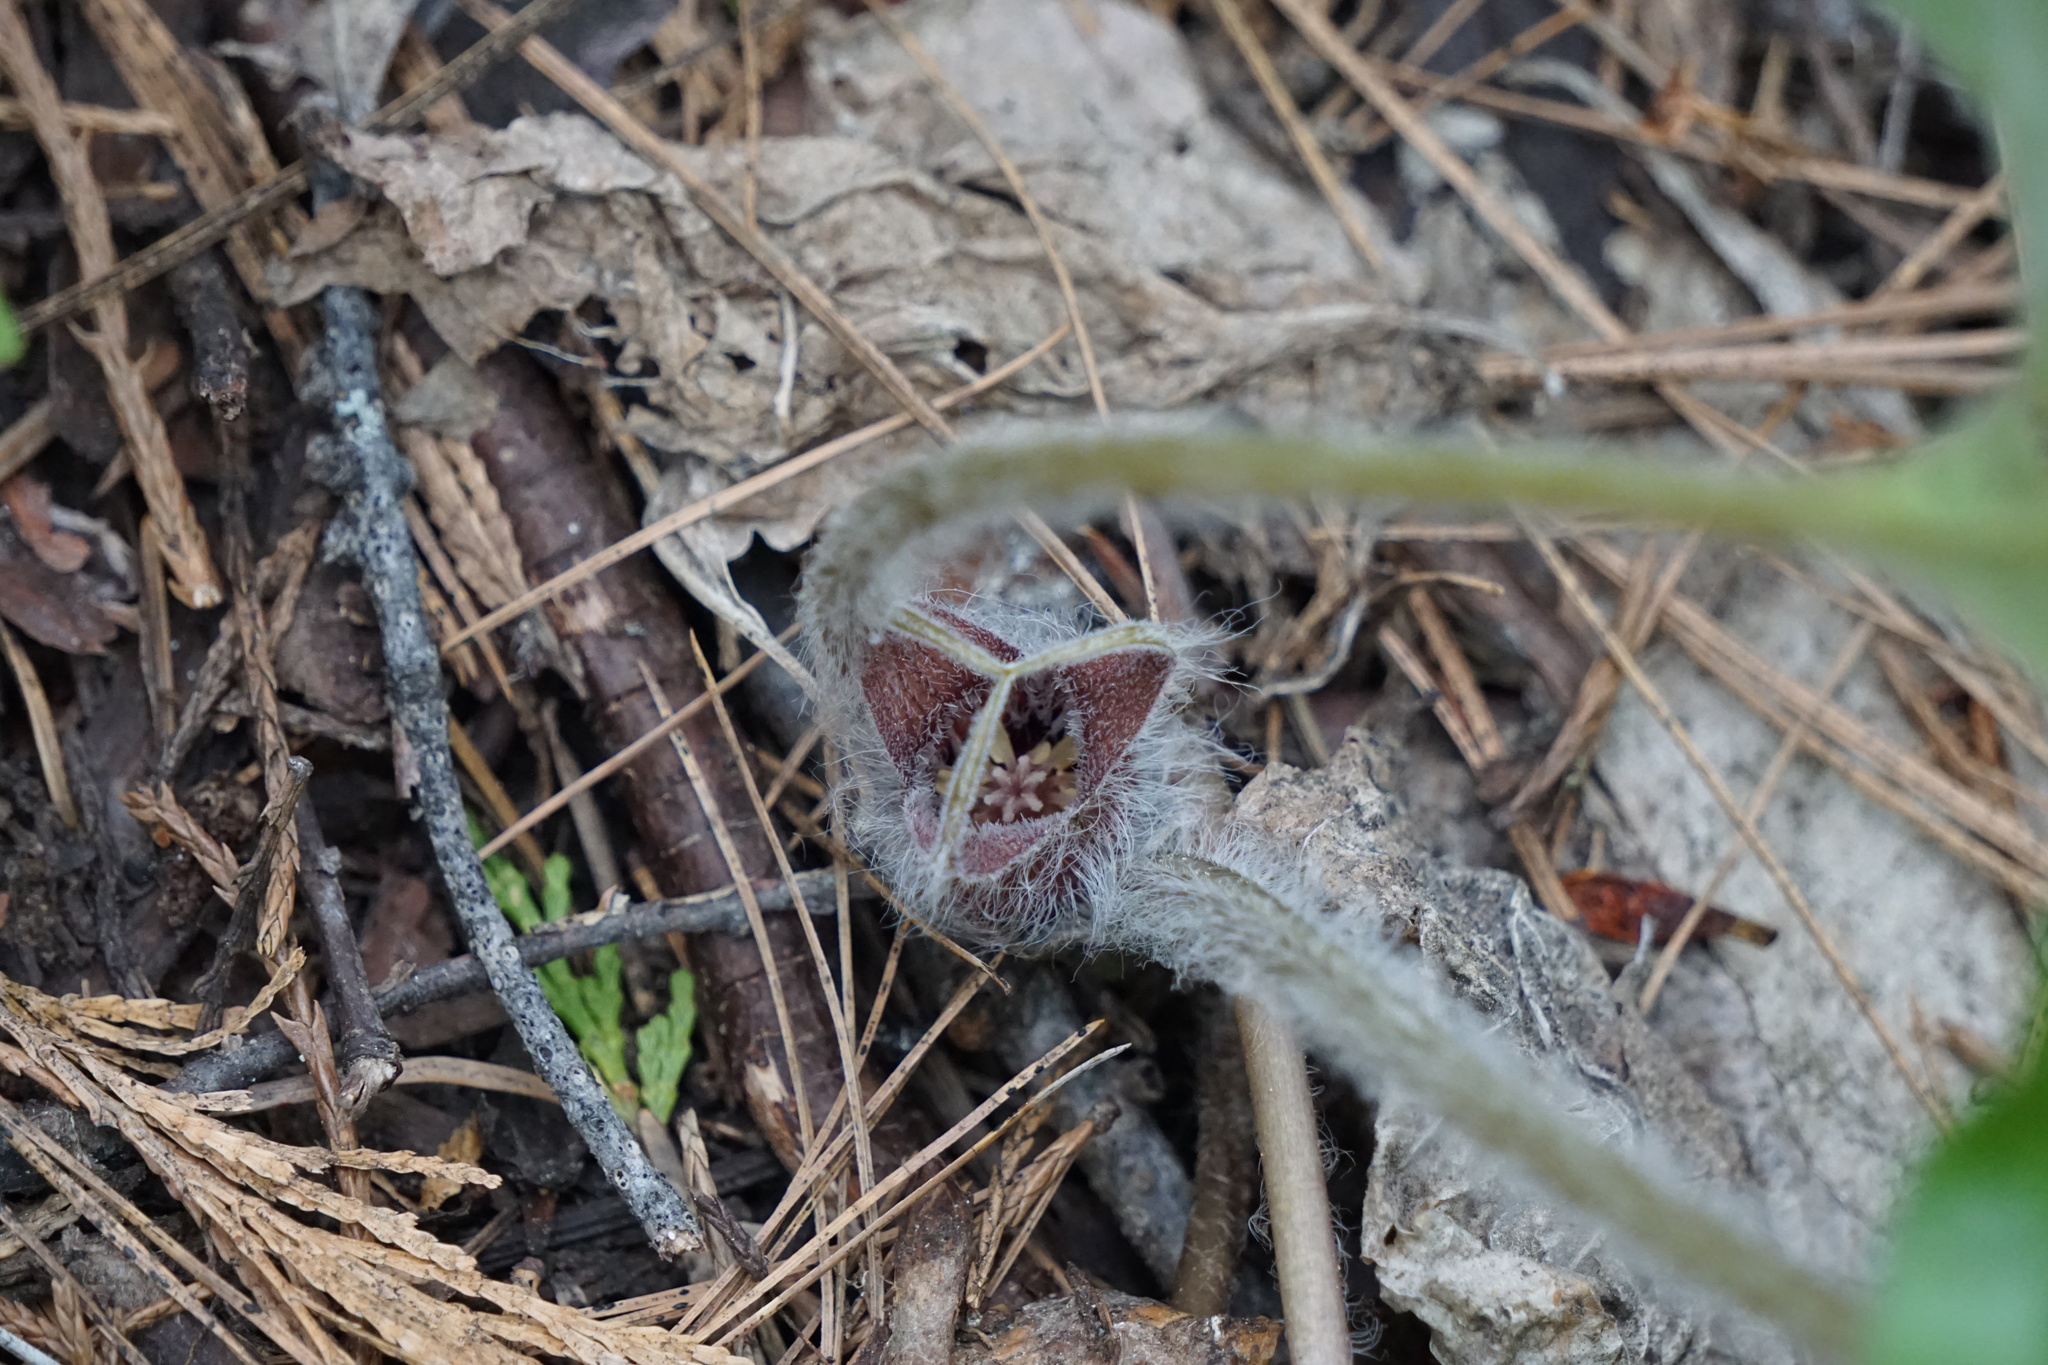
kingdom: Plantae
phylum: Tracheophyta
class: Magnoliopsida
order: Piperales
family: Aristolochiaceae
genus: Asarum
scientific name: Asarum hartwegii
